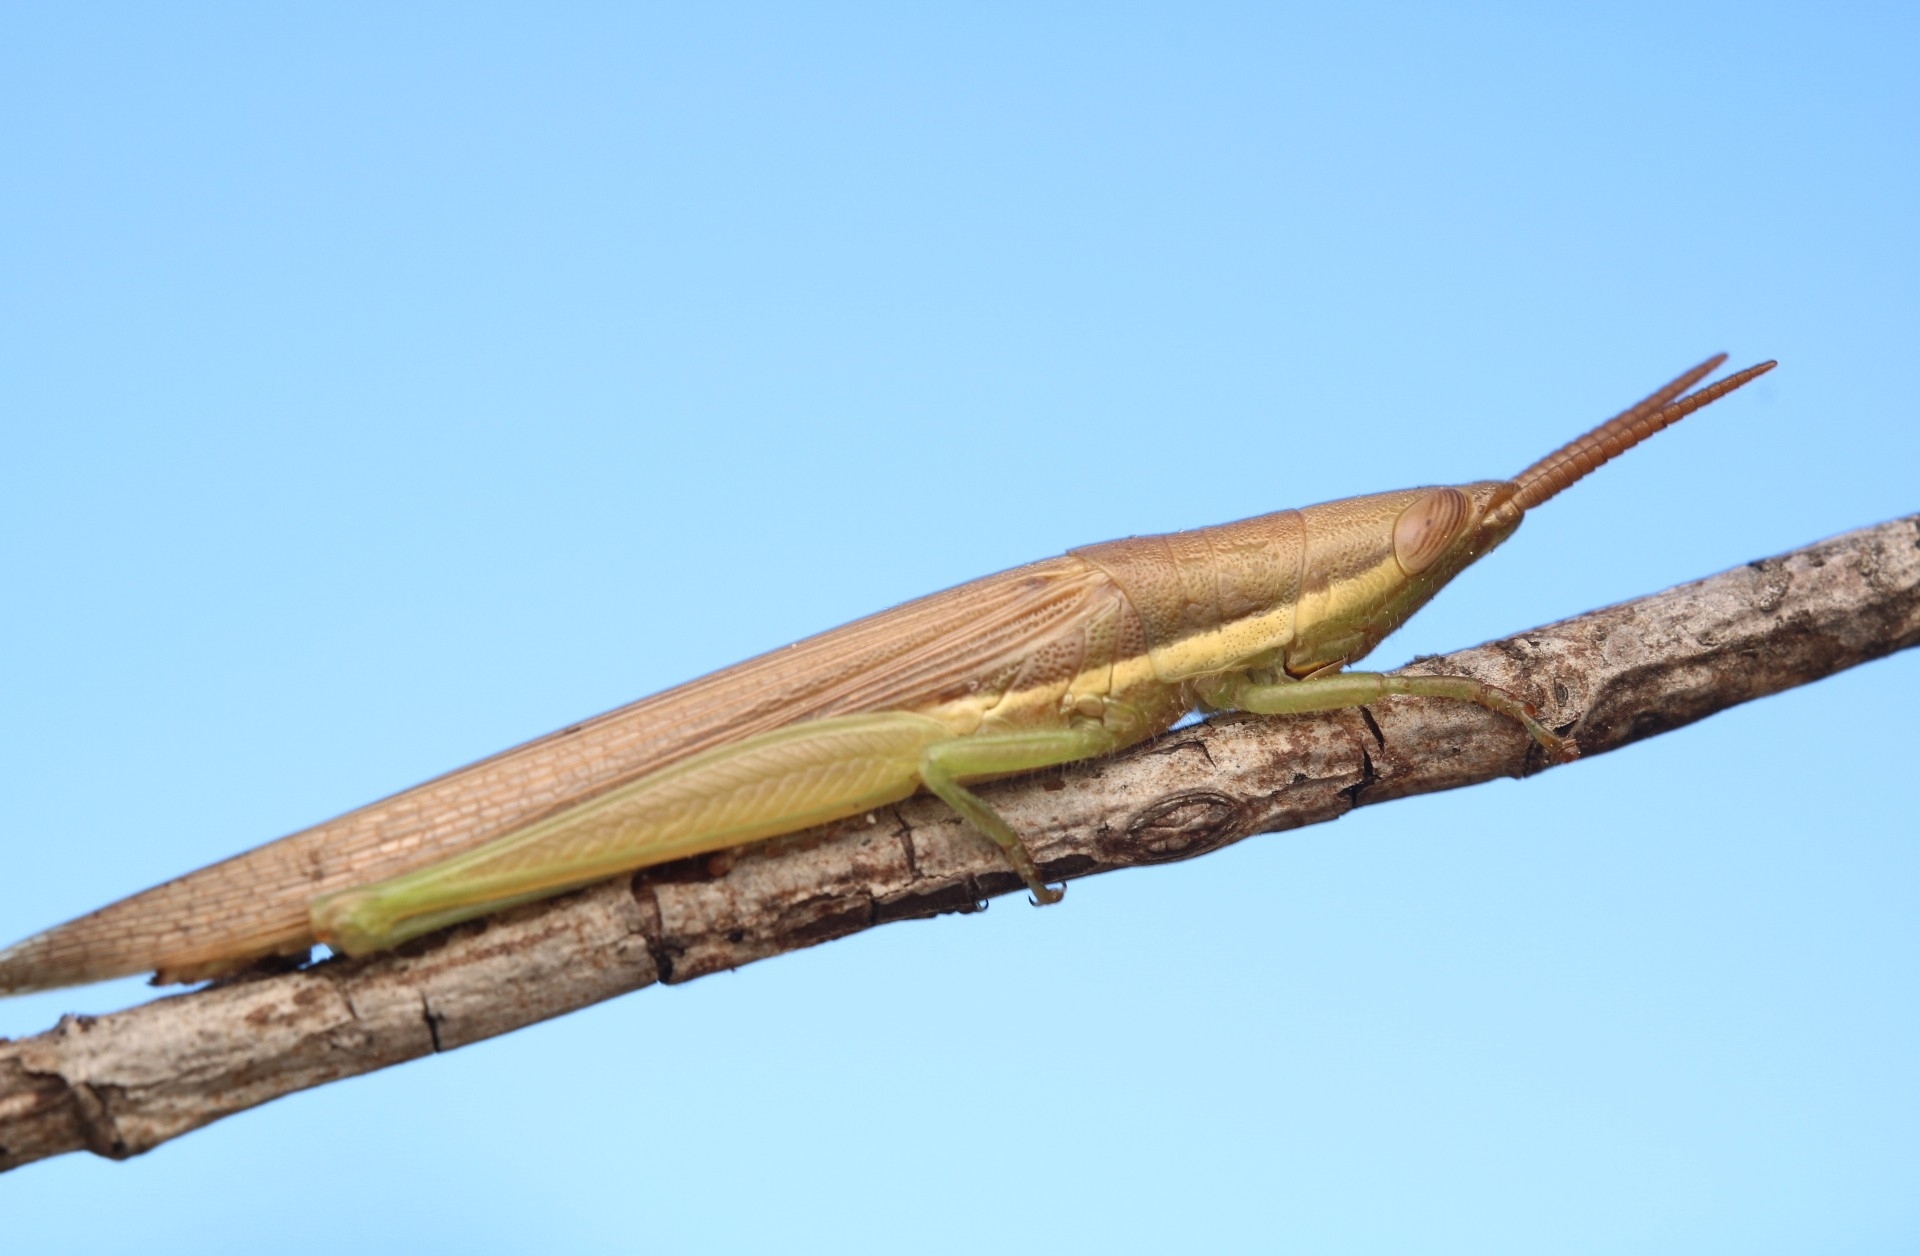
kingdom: Animalia
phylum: Arthropoda
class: Insecta
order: Orthoptera
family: Acrididae
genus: Leptysma
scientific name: Leptysma marginicollis
